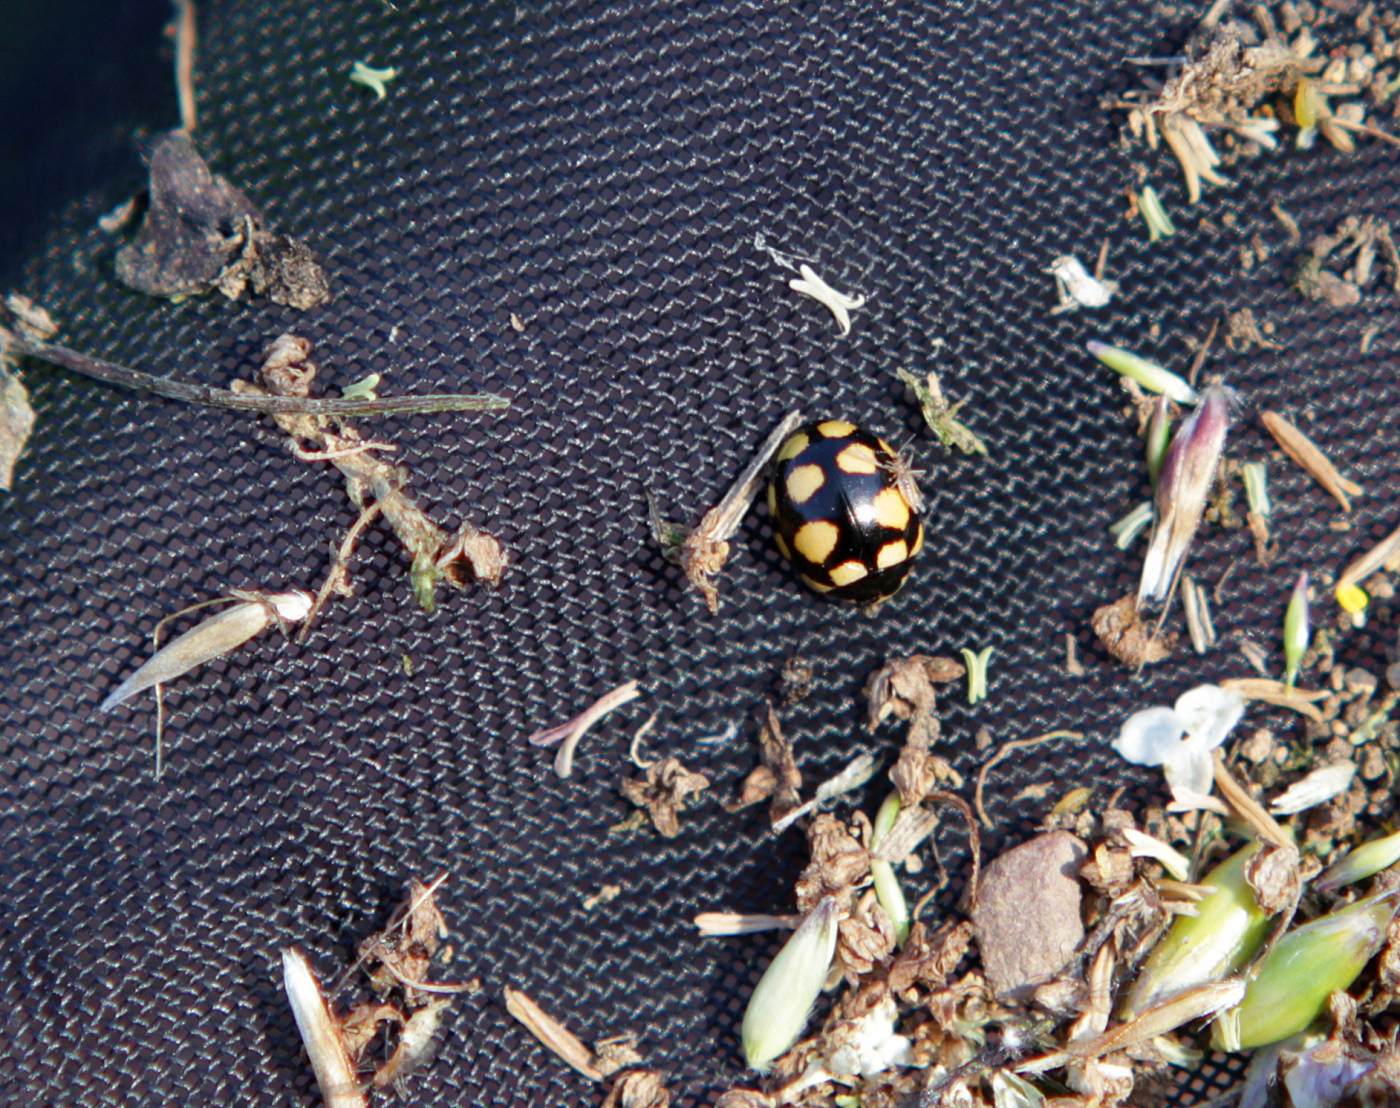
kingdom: Animalia
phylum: Arthropoda
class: Insecta
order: Coleoptera
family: Coccinellidae
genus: Coccinula
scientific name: Coccinula quatuordecimpustulata
